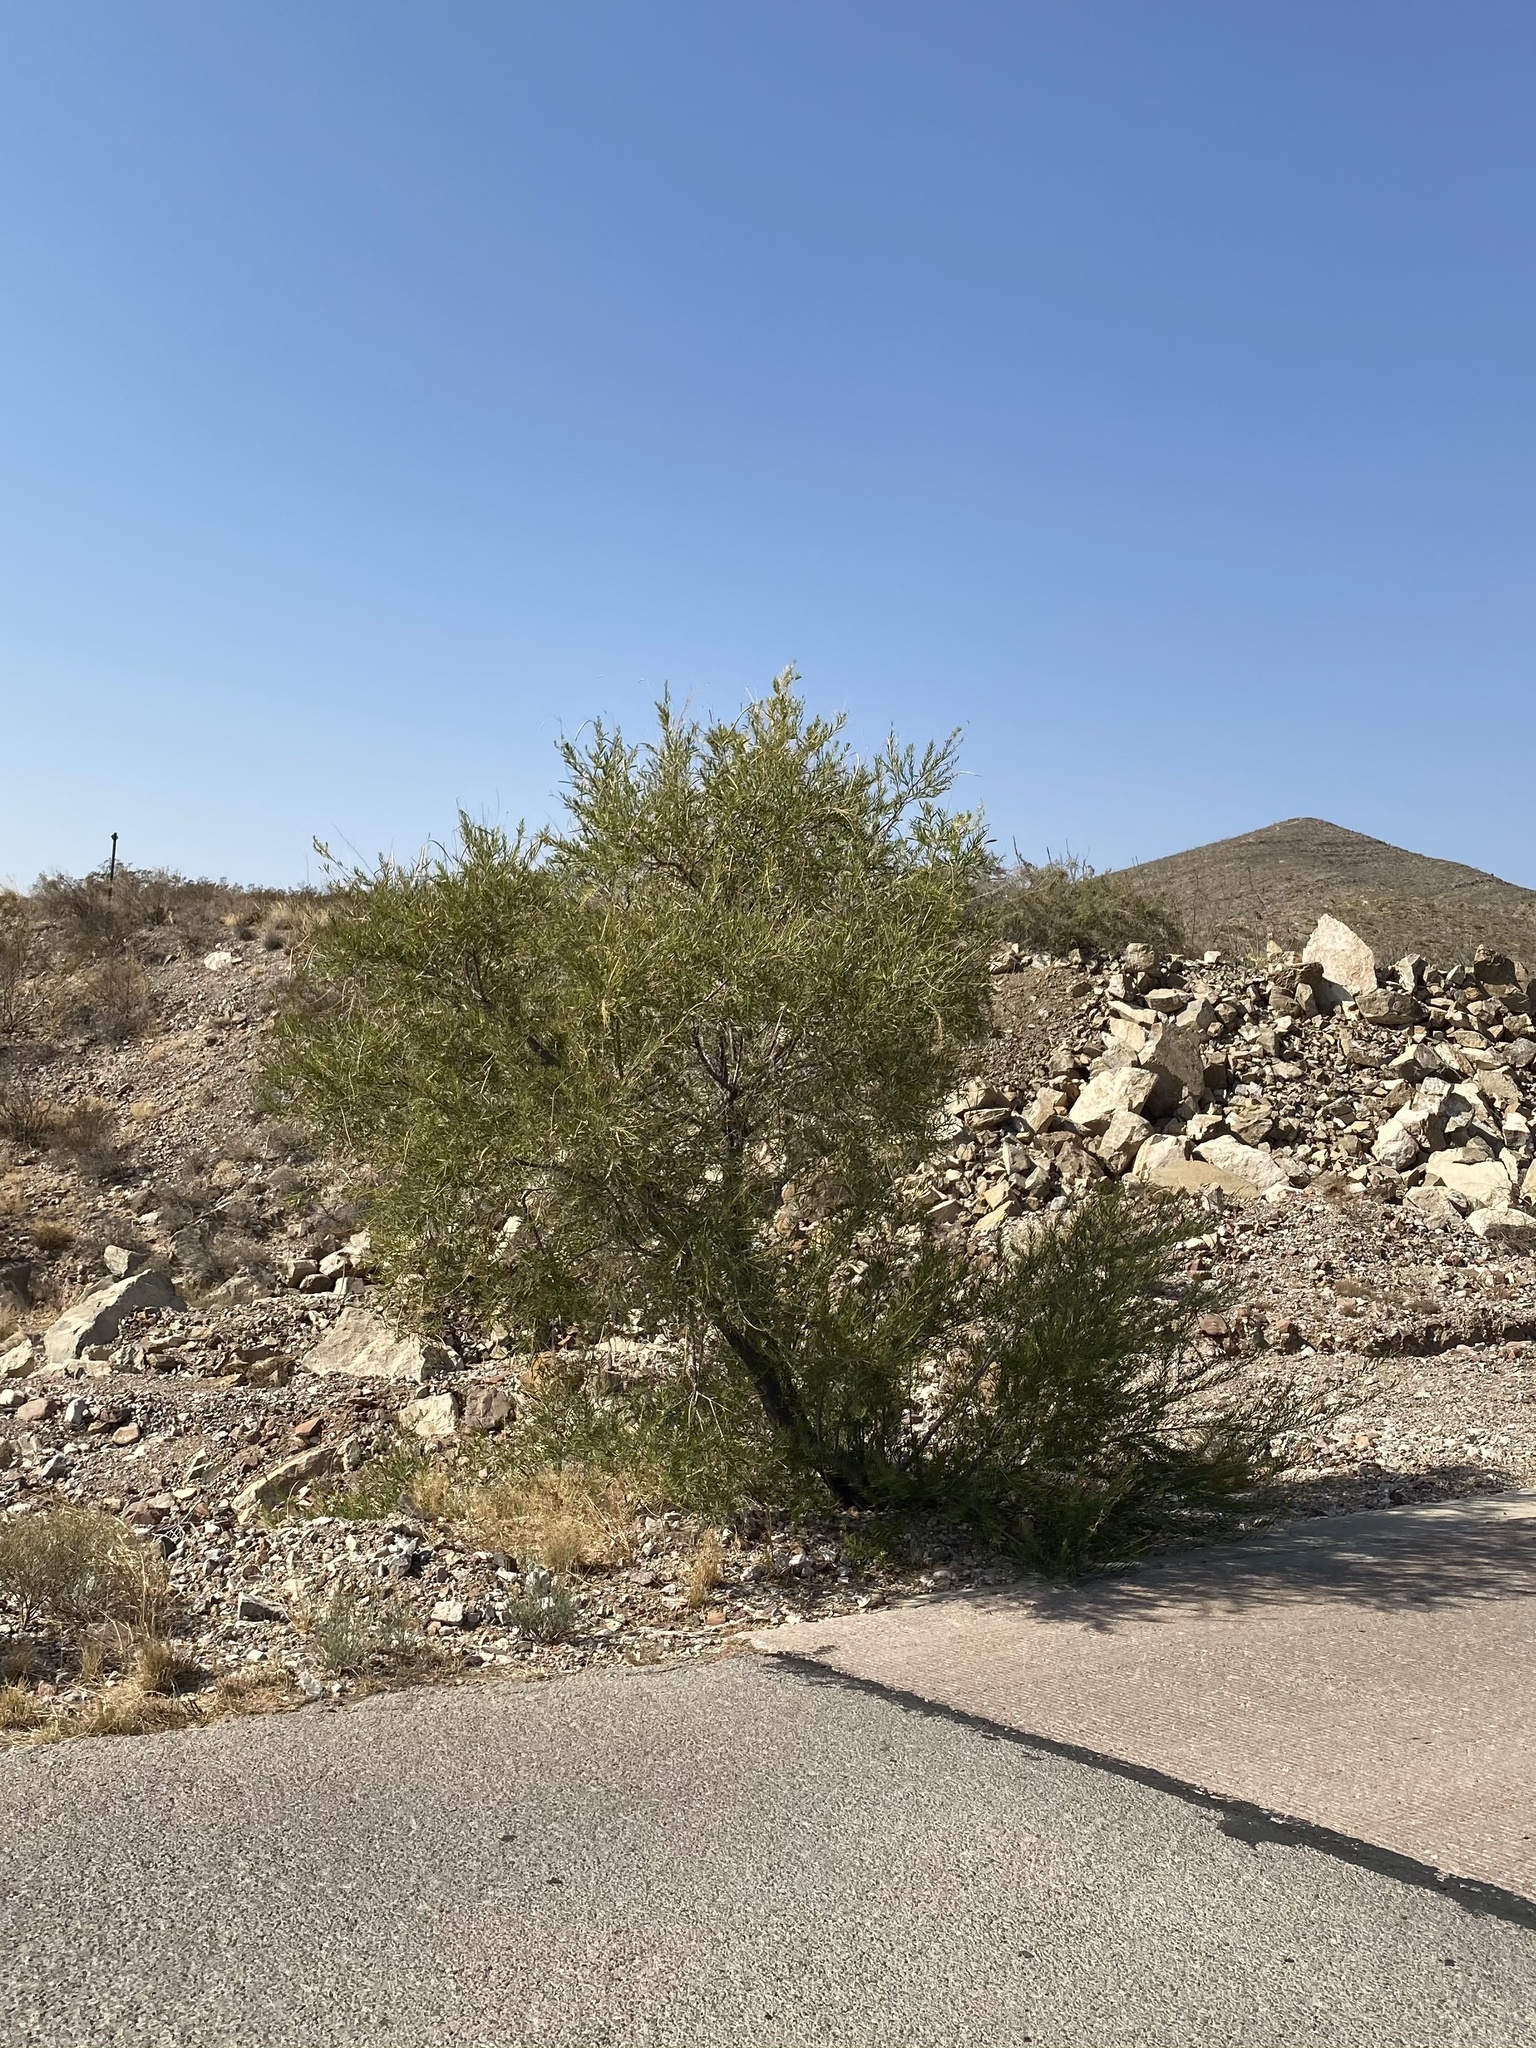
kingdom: Plantae
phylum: Tracheophyta
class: Magnoliopsida
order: Lamiales
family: Bignoniaceae
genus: Chilopsis
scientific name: Chilopsis linearis
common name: Desert-willow
